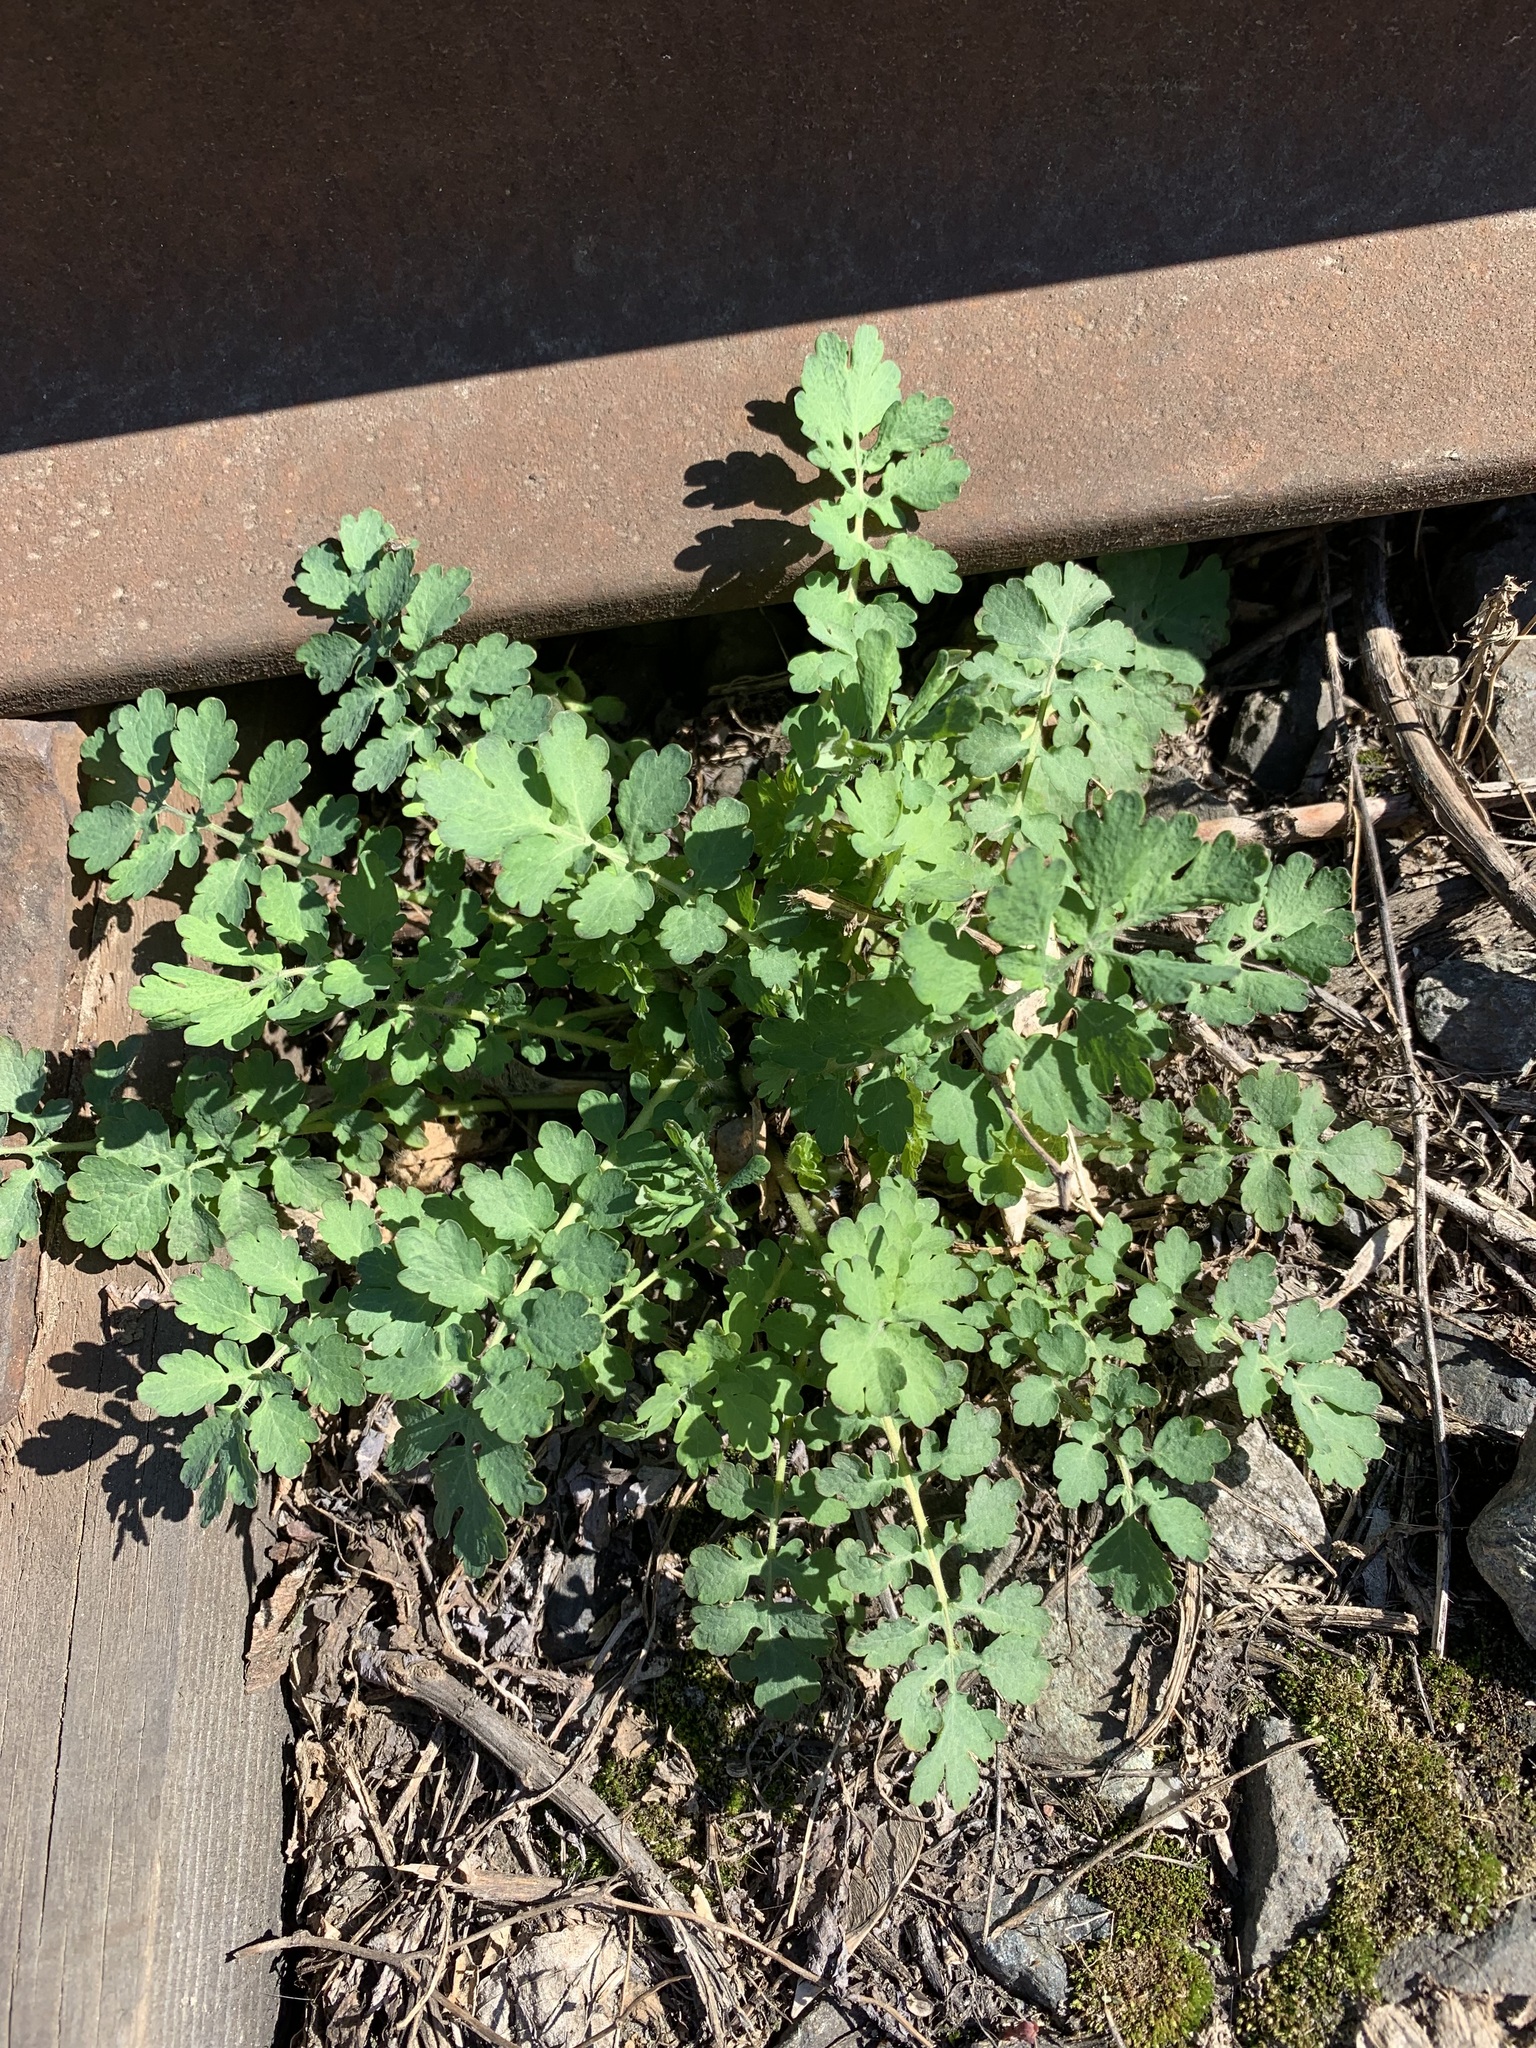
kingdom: Plantae
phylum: Tracheophyta
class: Magnoliopsida
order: Ranunculales
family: Papaveraceae
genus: Chelidonium
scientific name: Chelidonium majus
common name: Greater celandine
